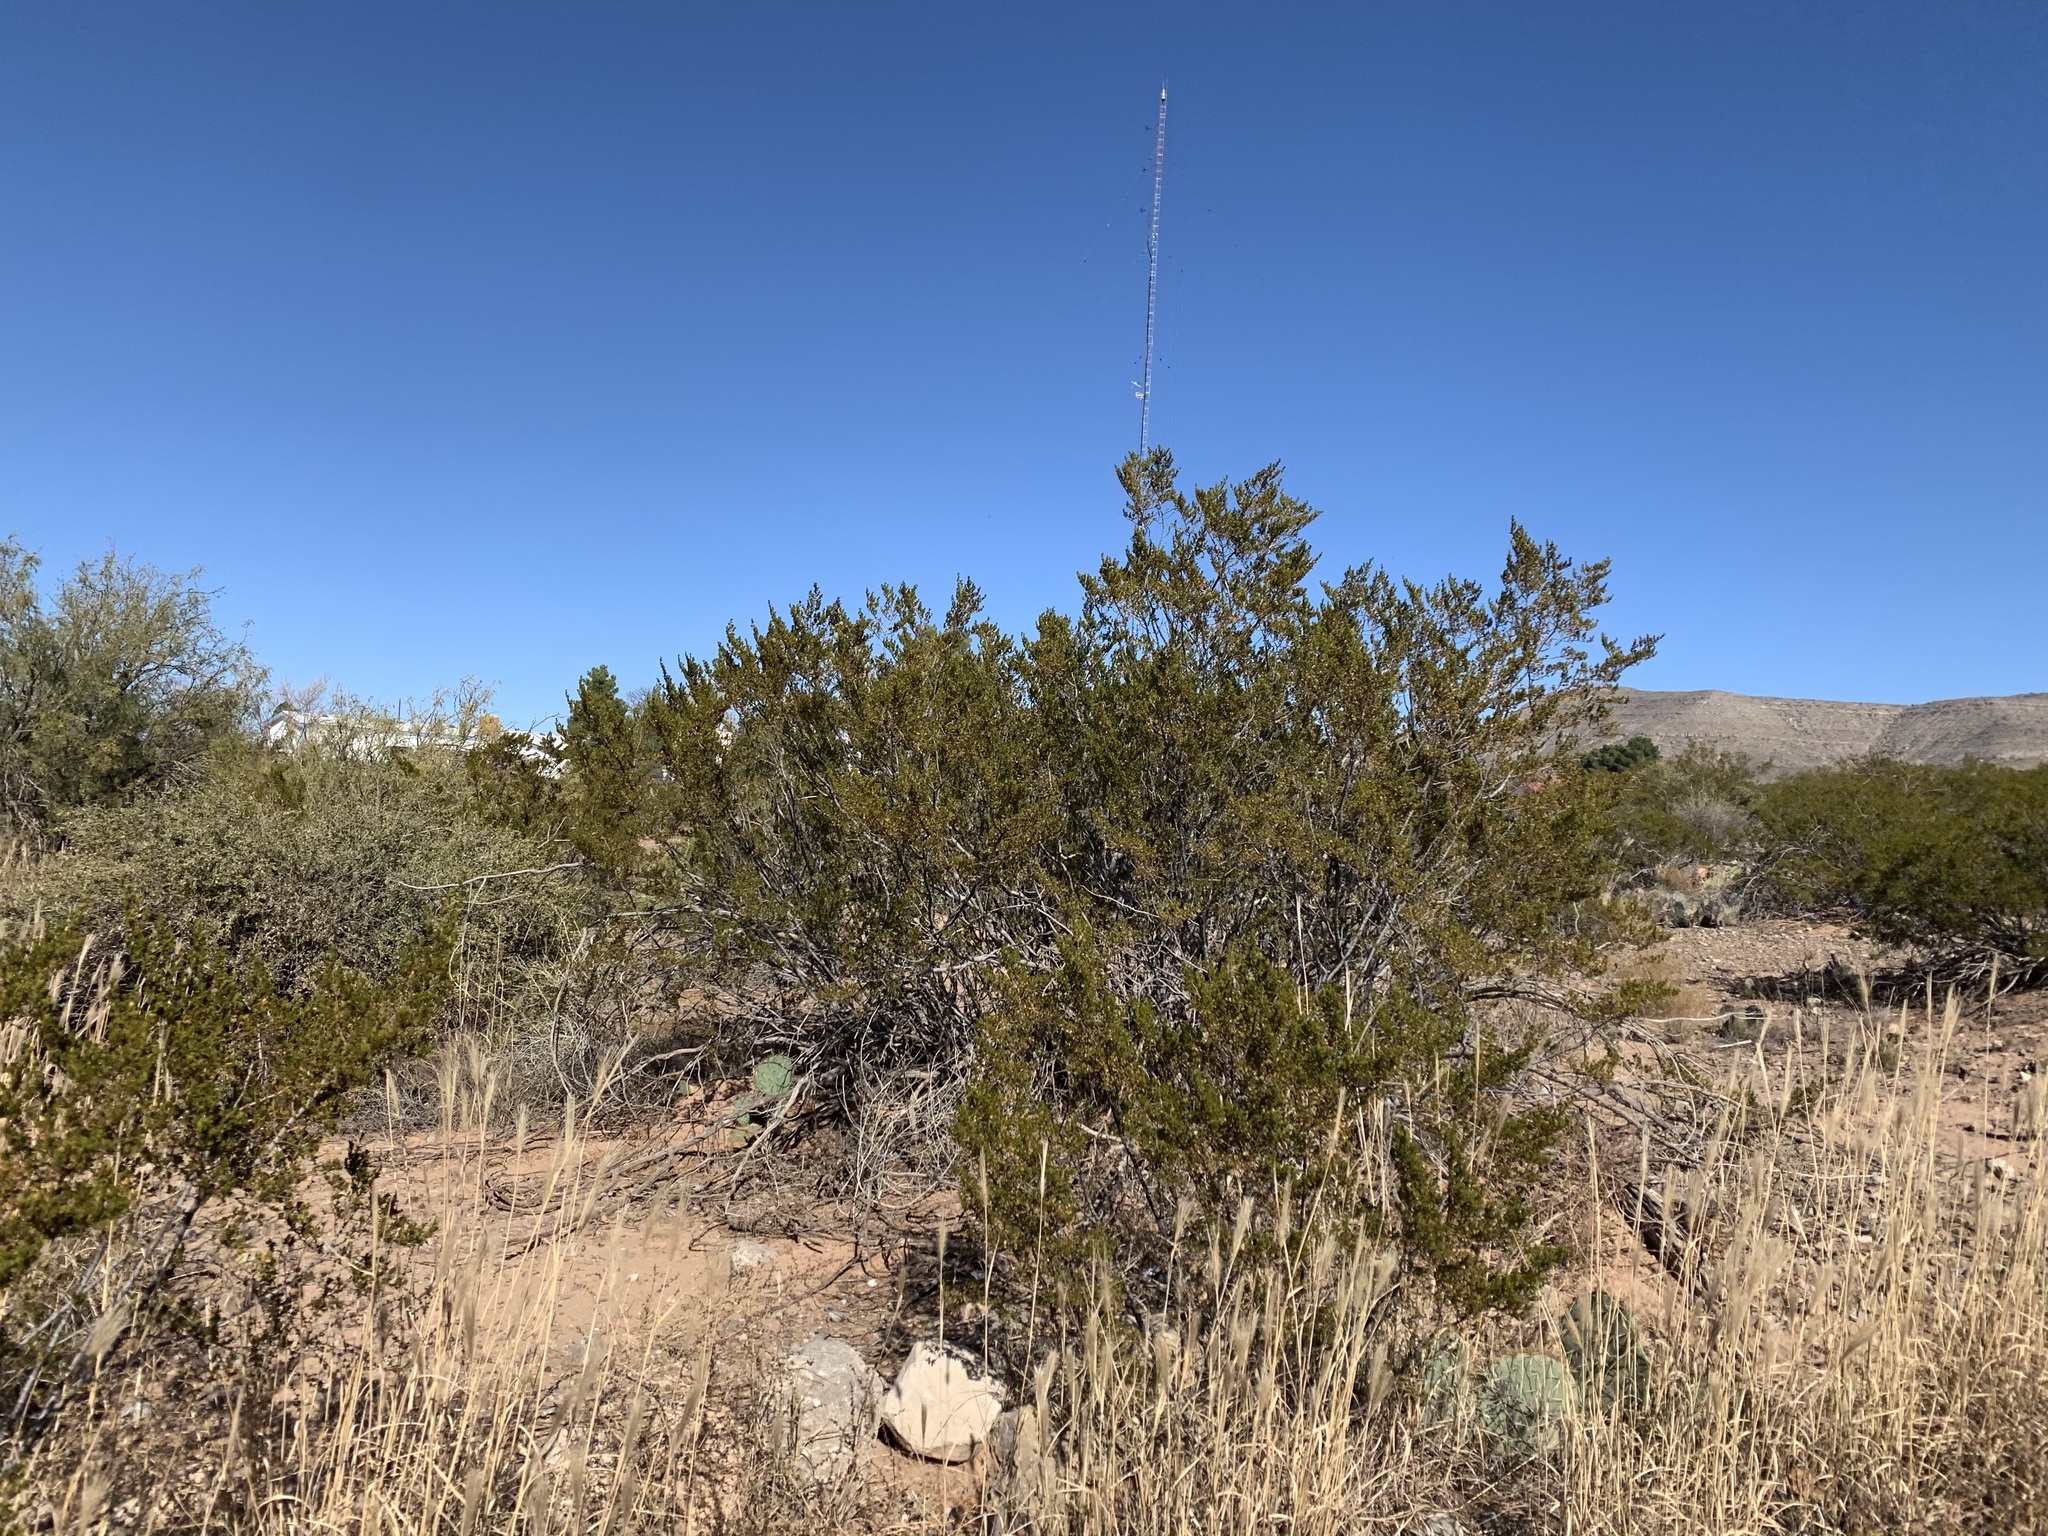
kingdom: Plantae
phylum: Tracheophyta
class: Magnoliopsida
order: Zygophyllales
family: Zygophyllaceae
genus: Larrea
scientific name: Larrea tridentata
